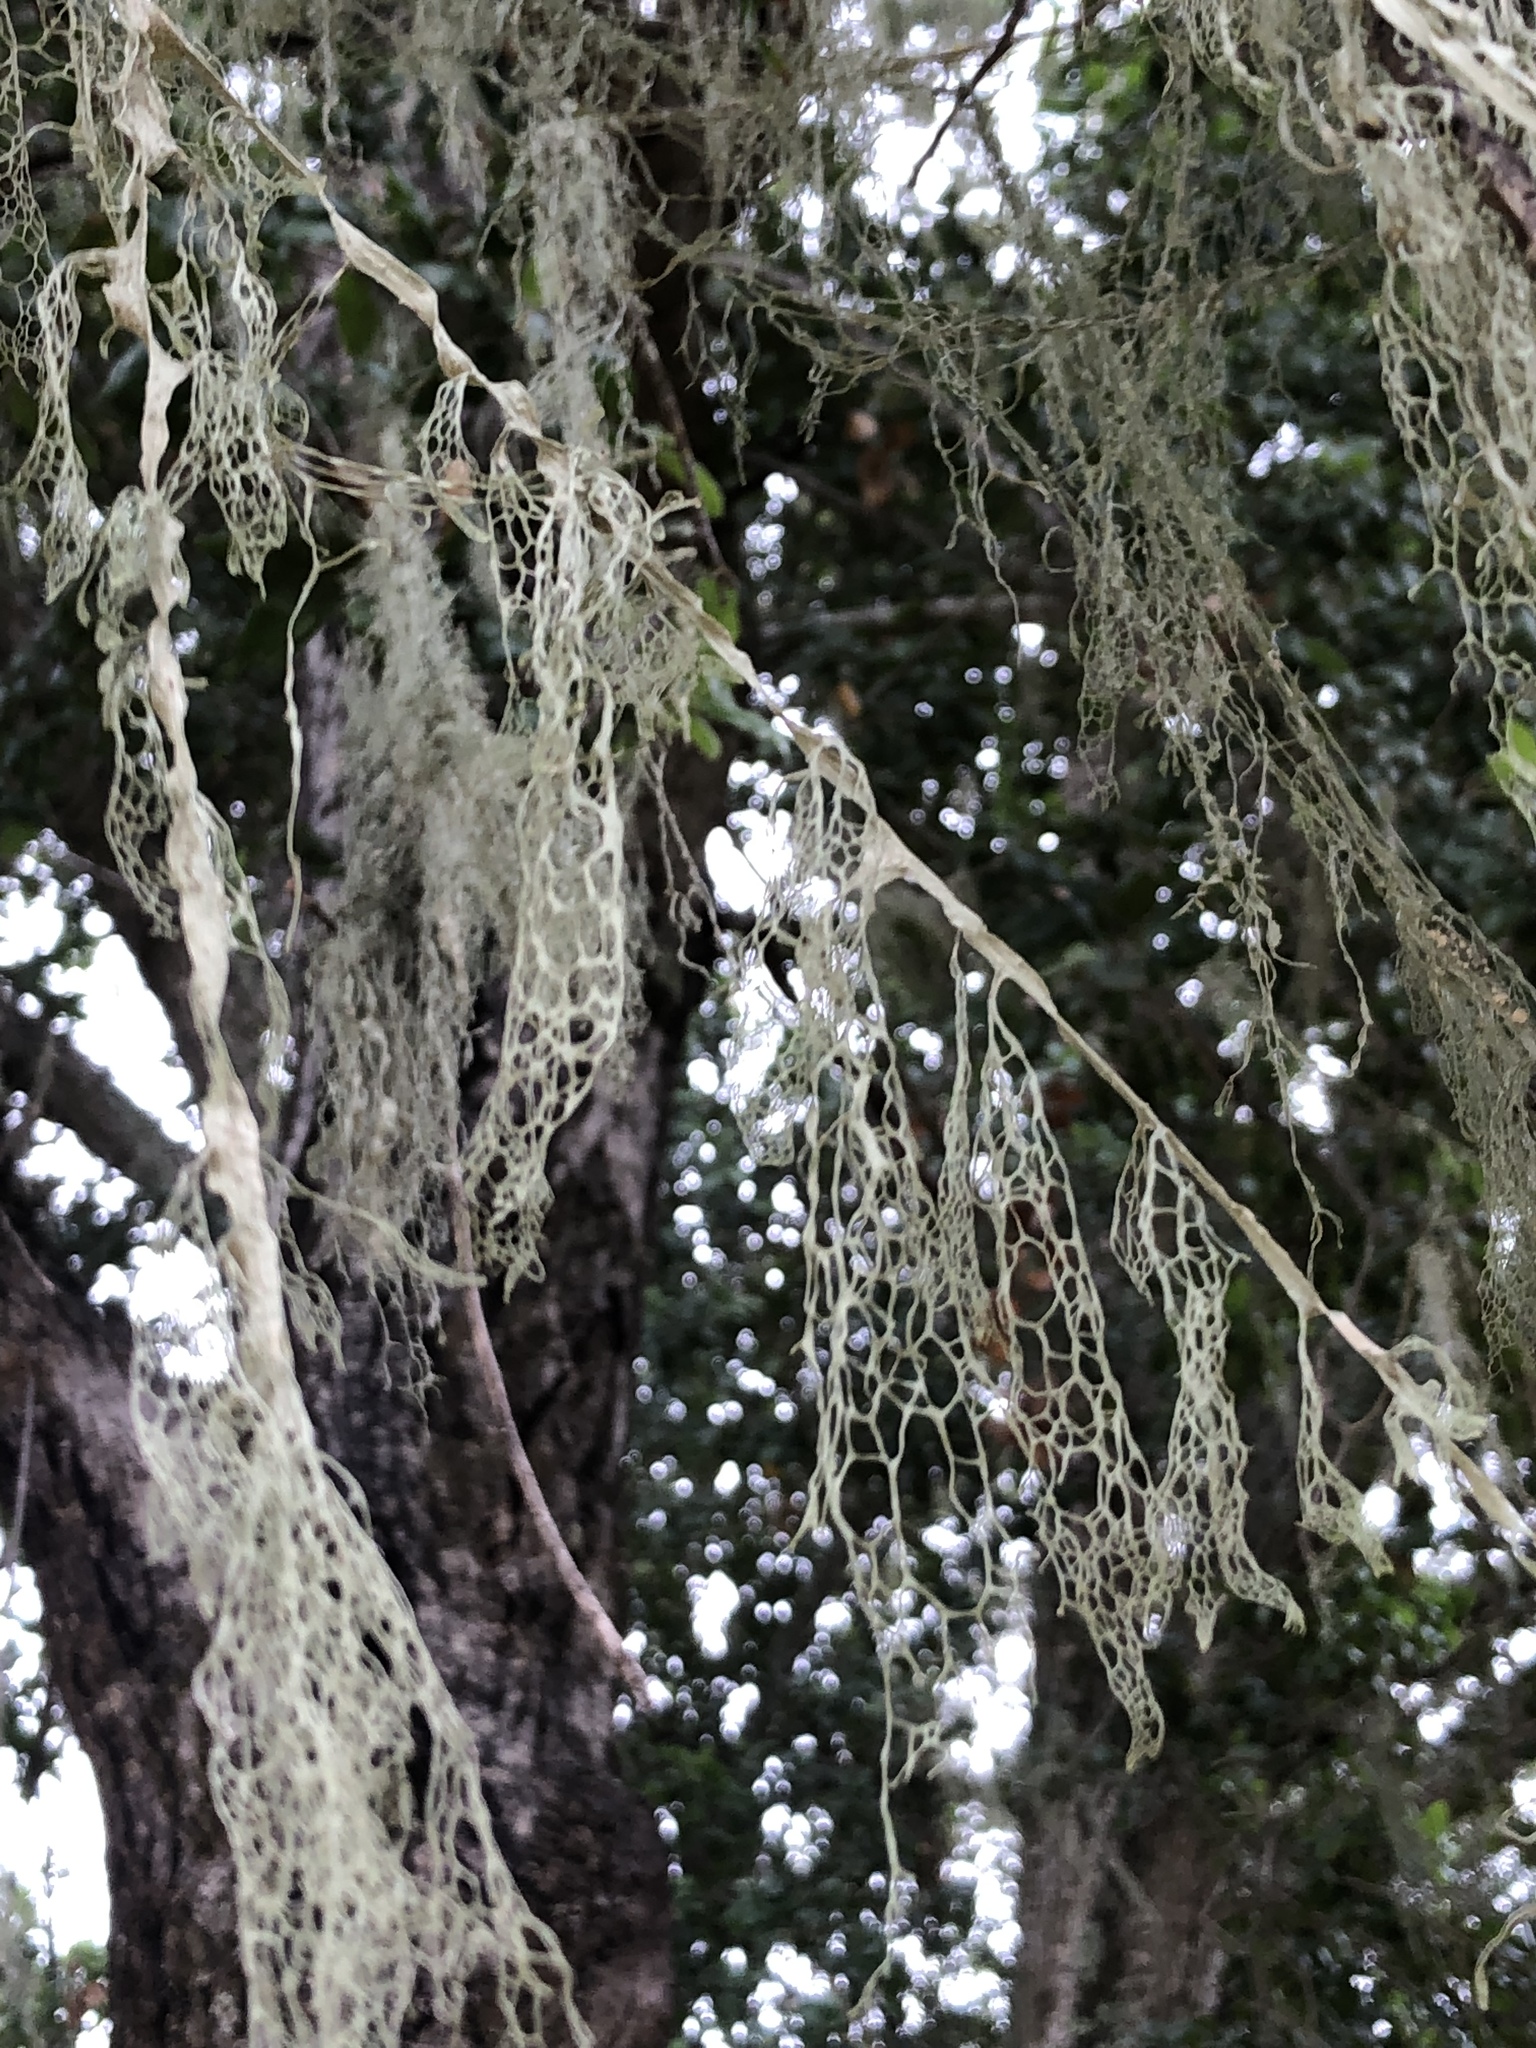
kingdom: Fungi
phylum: Ascomycota
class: Lecanoromycetes
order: Lecanorales
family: Ramalinaceae
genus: Ramalina
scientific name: Ramalina menziesii
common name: Lace lichen
